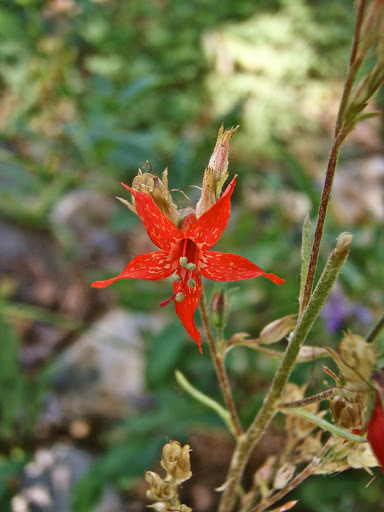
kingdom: Plantae
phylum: Tracheophyta
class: Magnoliopsida
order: Ericales
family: Polemoniaceae
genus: Ipomopsis
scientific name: Ipomopsis aggregata
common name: Scarlet gilia
